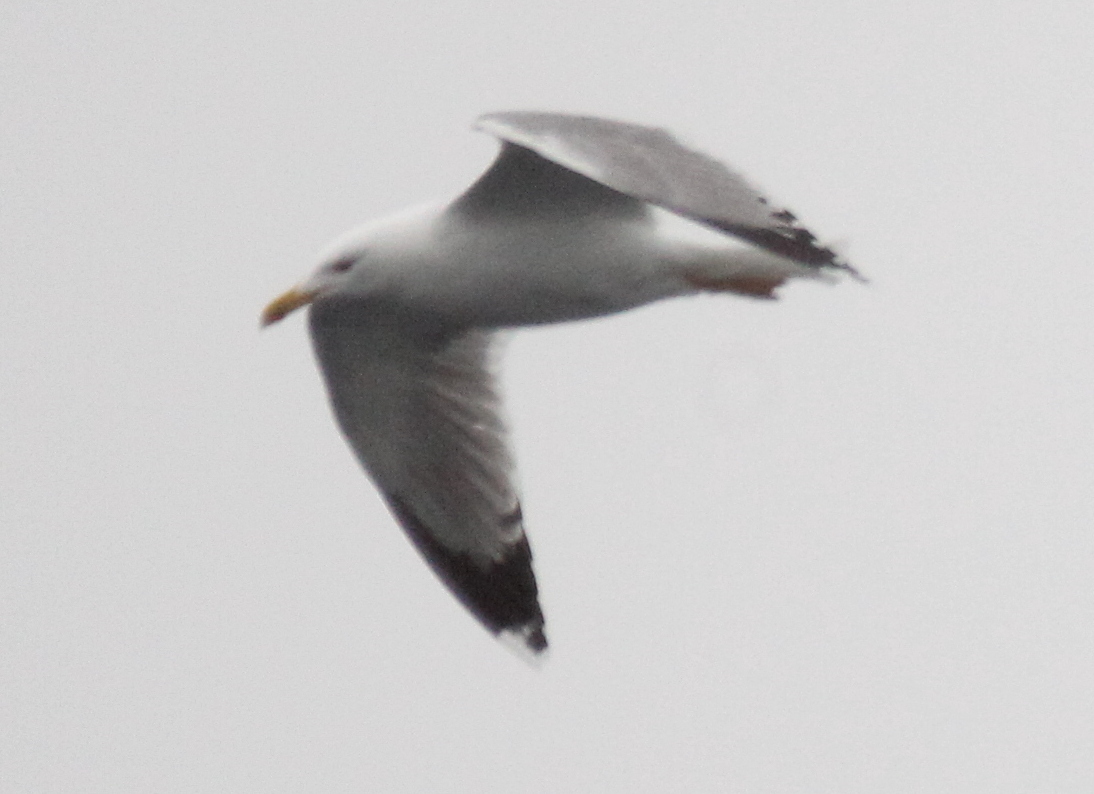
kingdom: Animalia
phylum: Chordata
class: Aves
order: Charadriiformes
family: Laridae
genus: Larus
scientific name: Larus michahellis
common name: Yellow-legged gull
